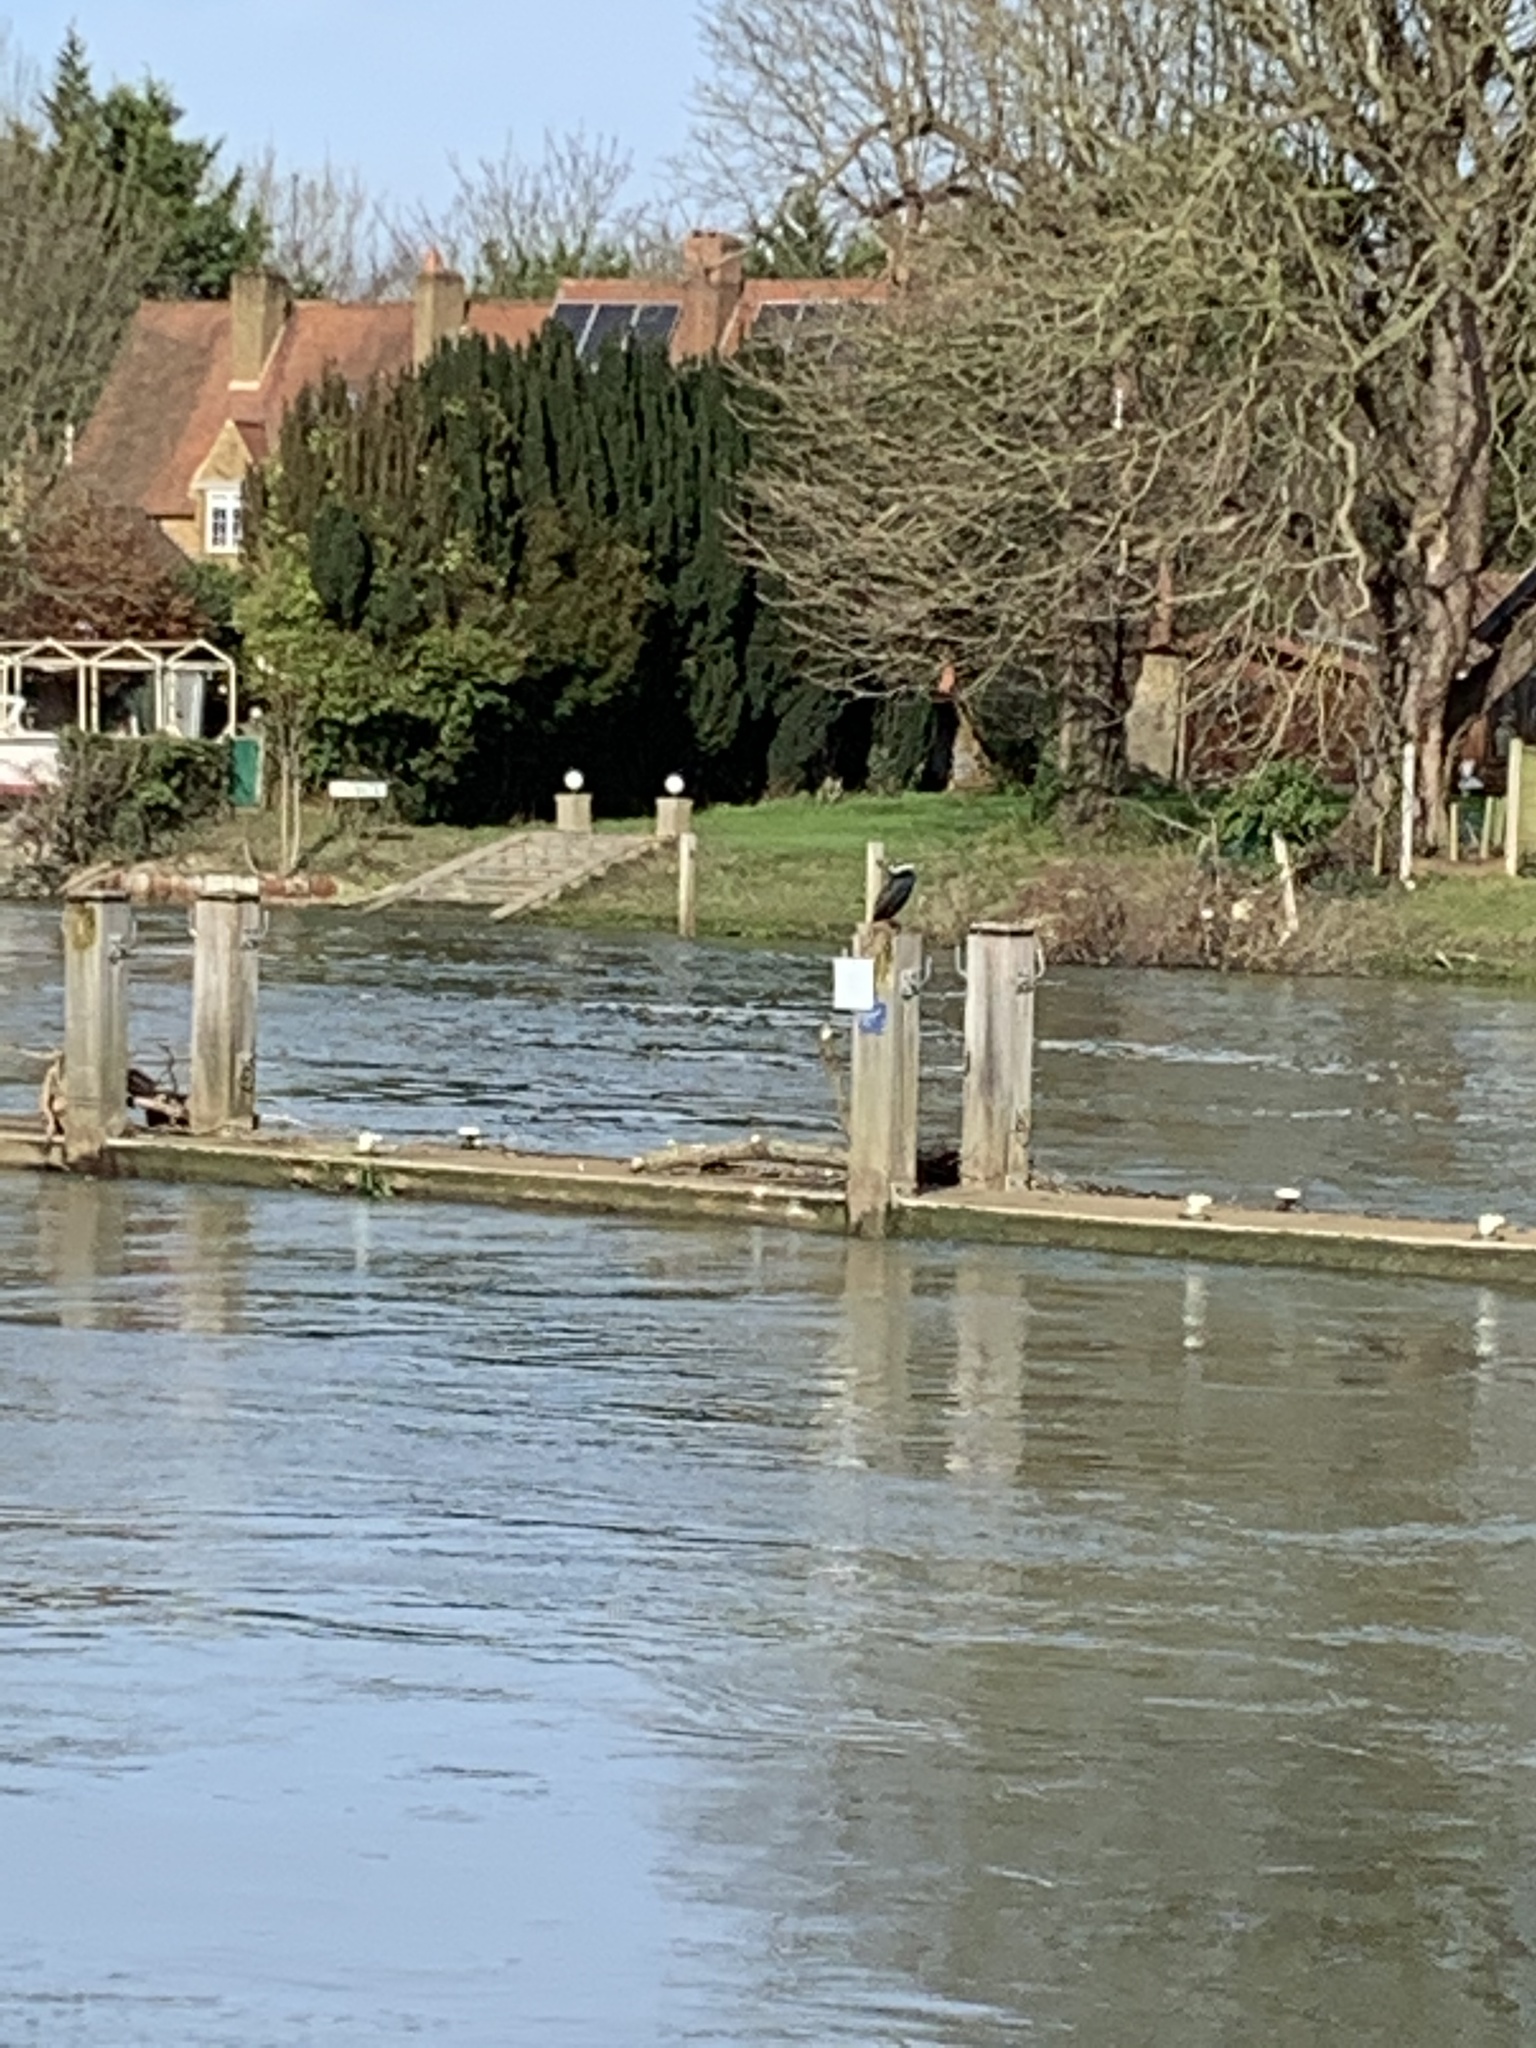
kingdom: Animalia
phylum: Chordata
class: Aves
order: Suliformes
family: Phalacrocoracidae
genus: Phalacrocorax
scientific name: Phalacrocorax carbo
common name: Great cormorant
